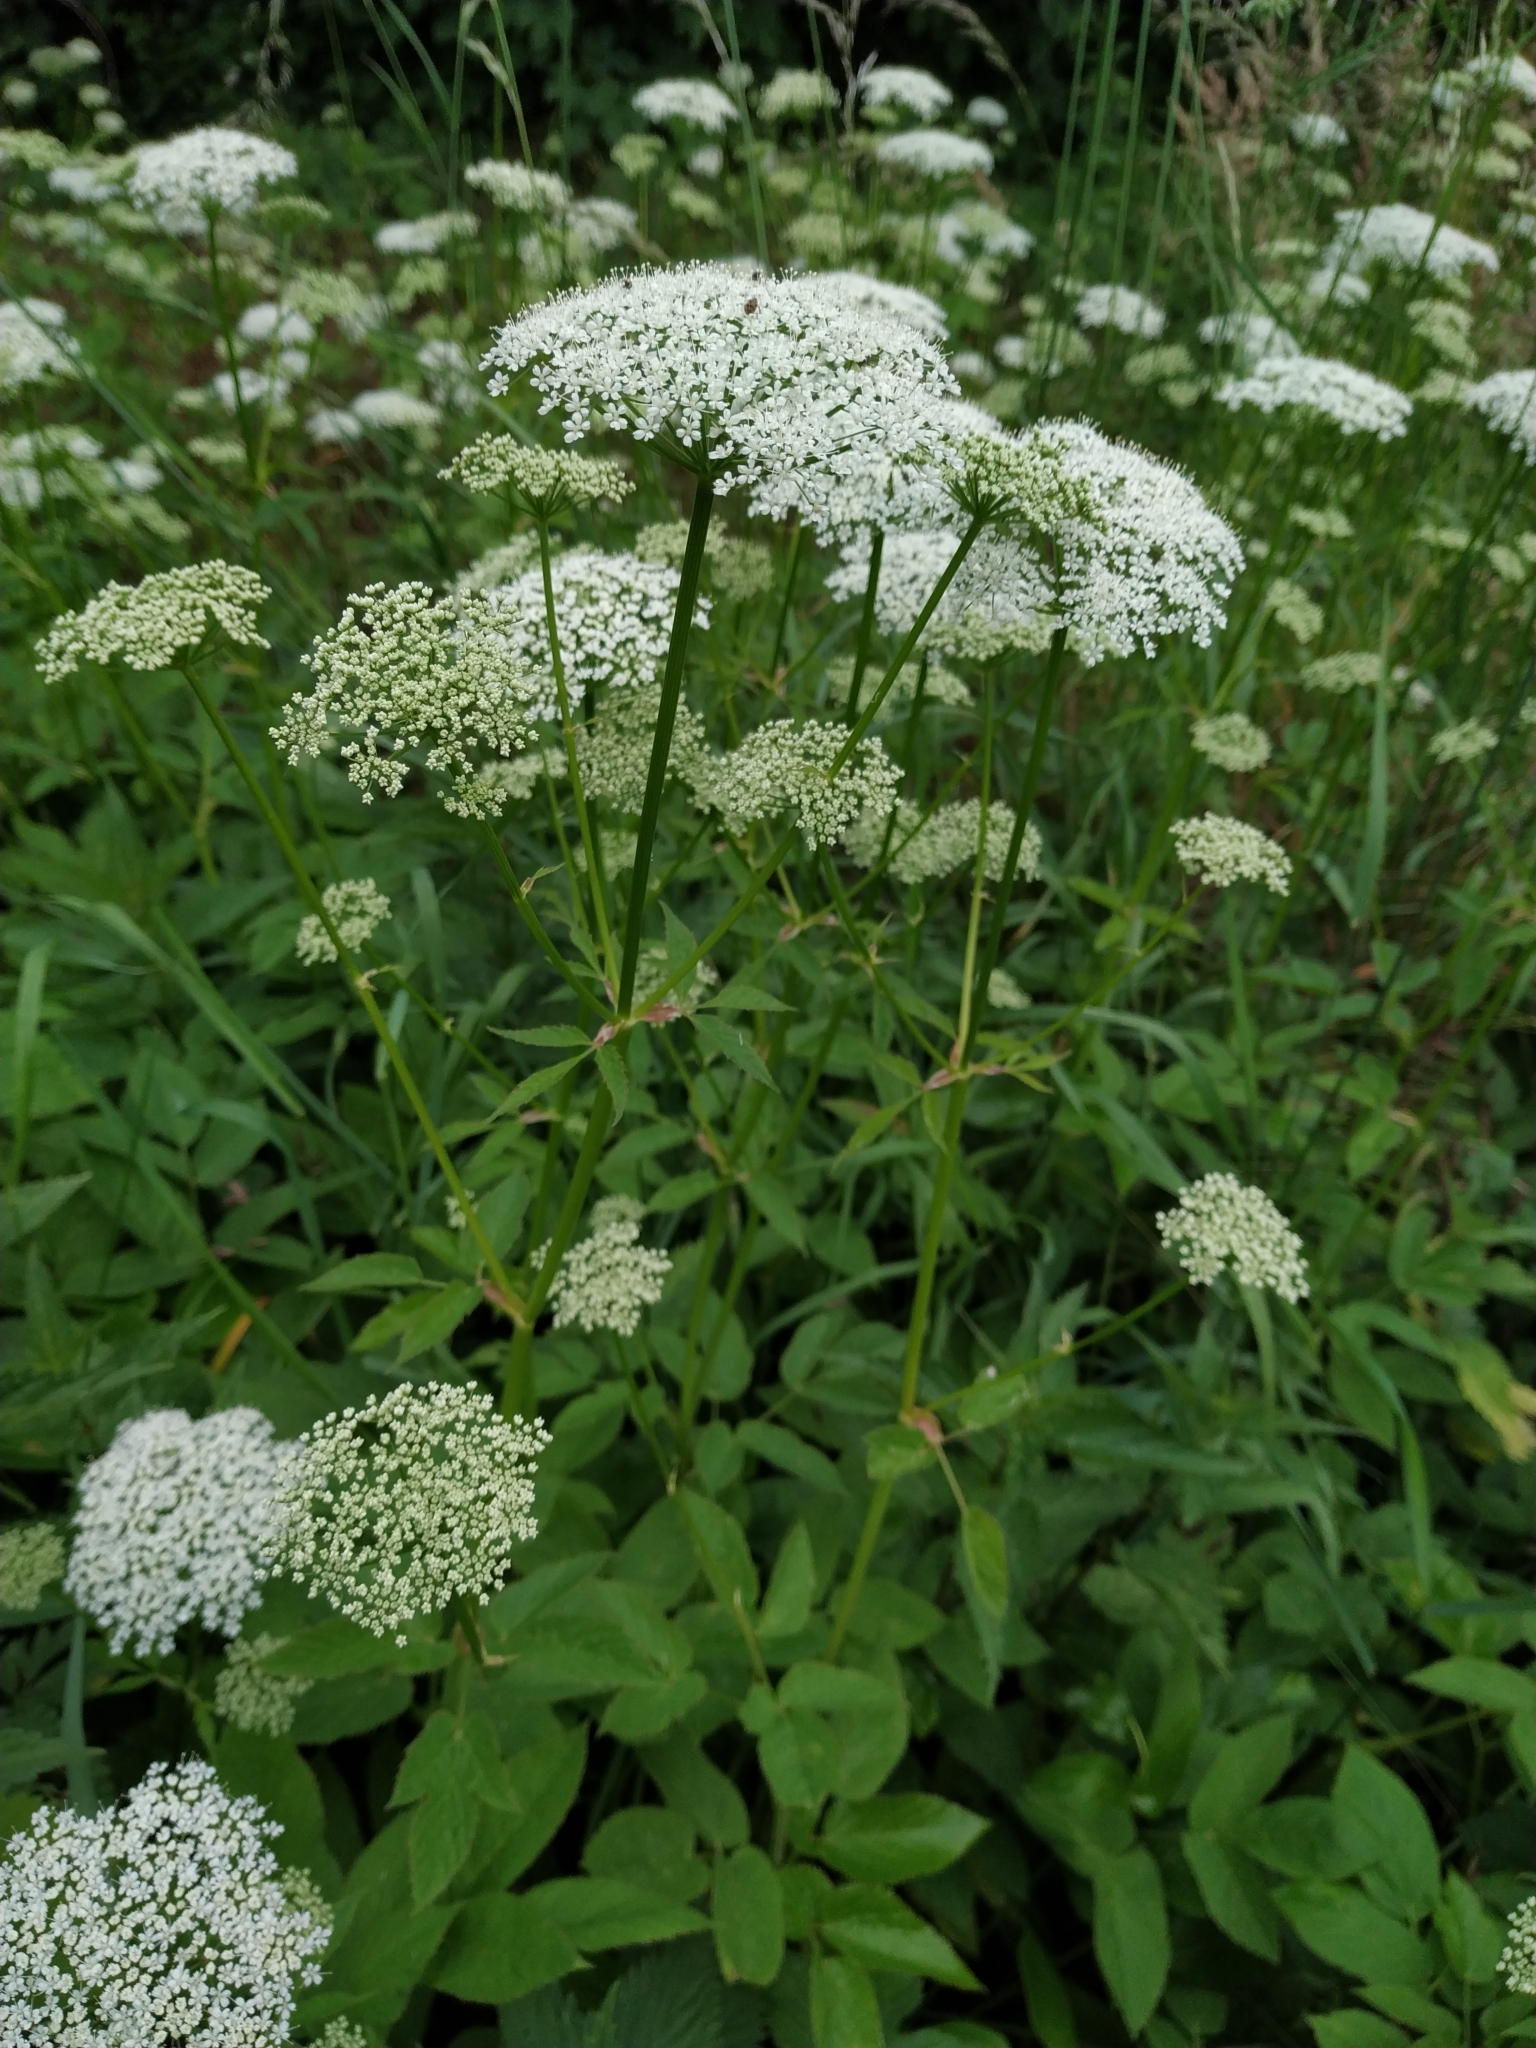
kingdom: Plantae
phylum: Tracheophyta
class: Magnoliopsida
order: Apiales
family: Apiaceae
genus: Aegopodium
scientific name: Aegopodium podagraria
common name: Ground-elder
